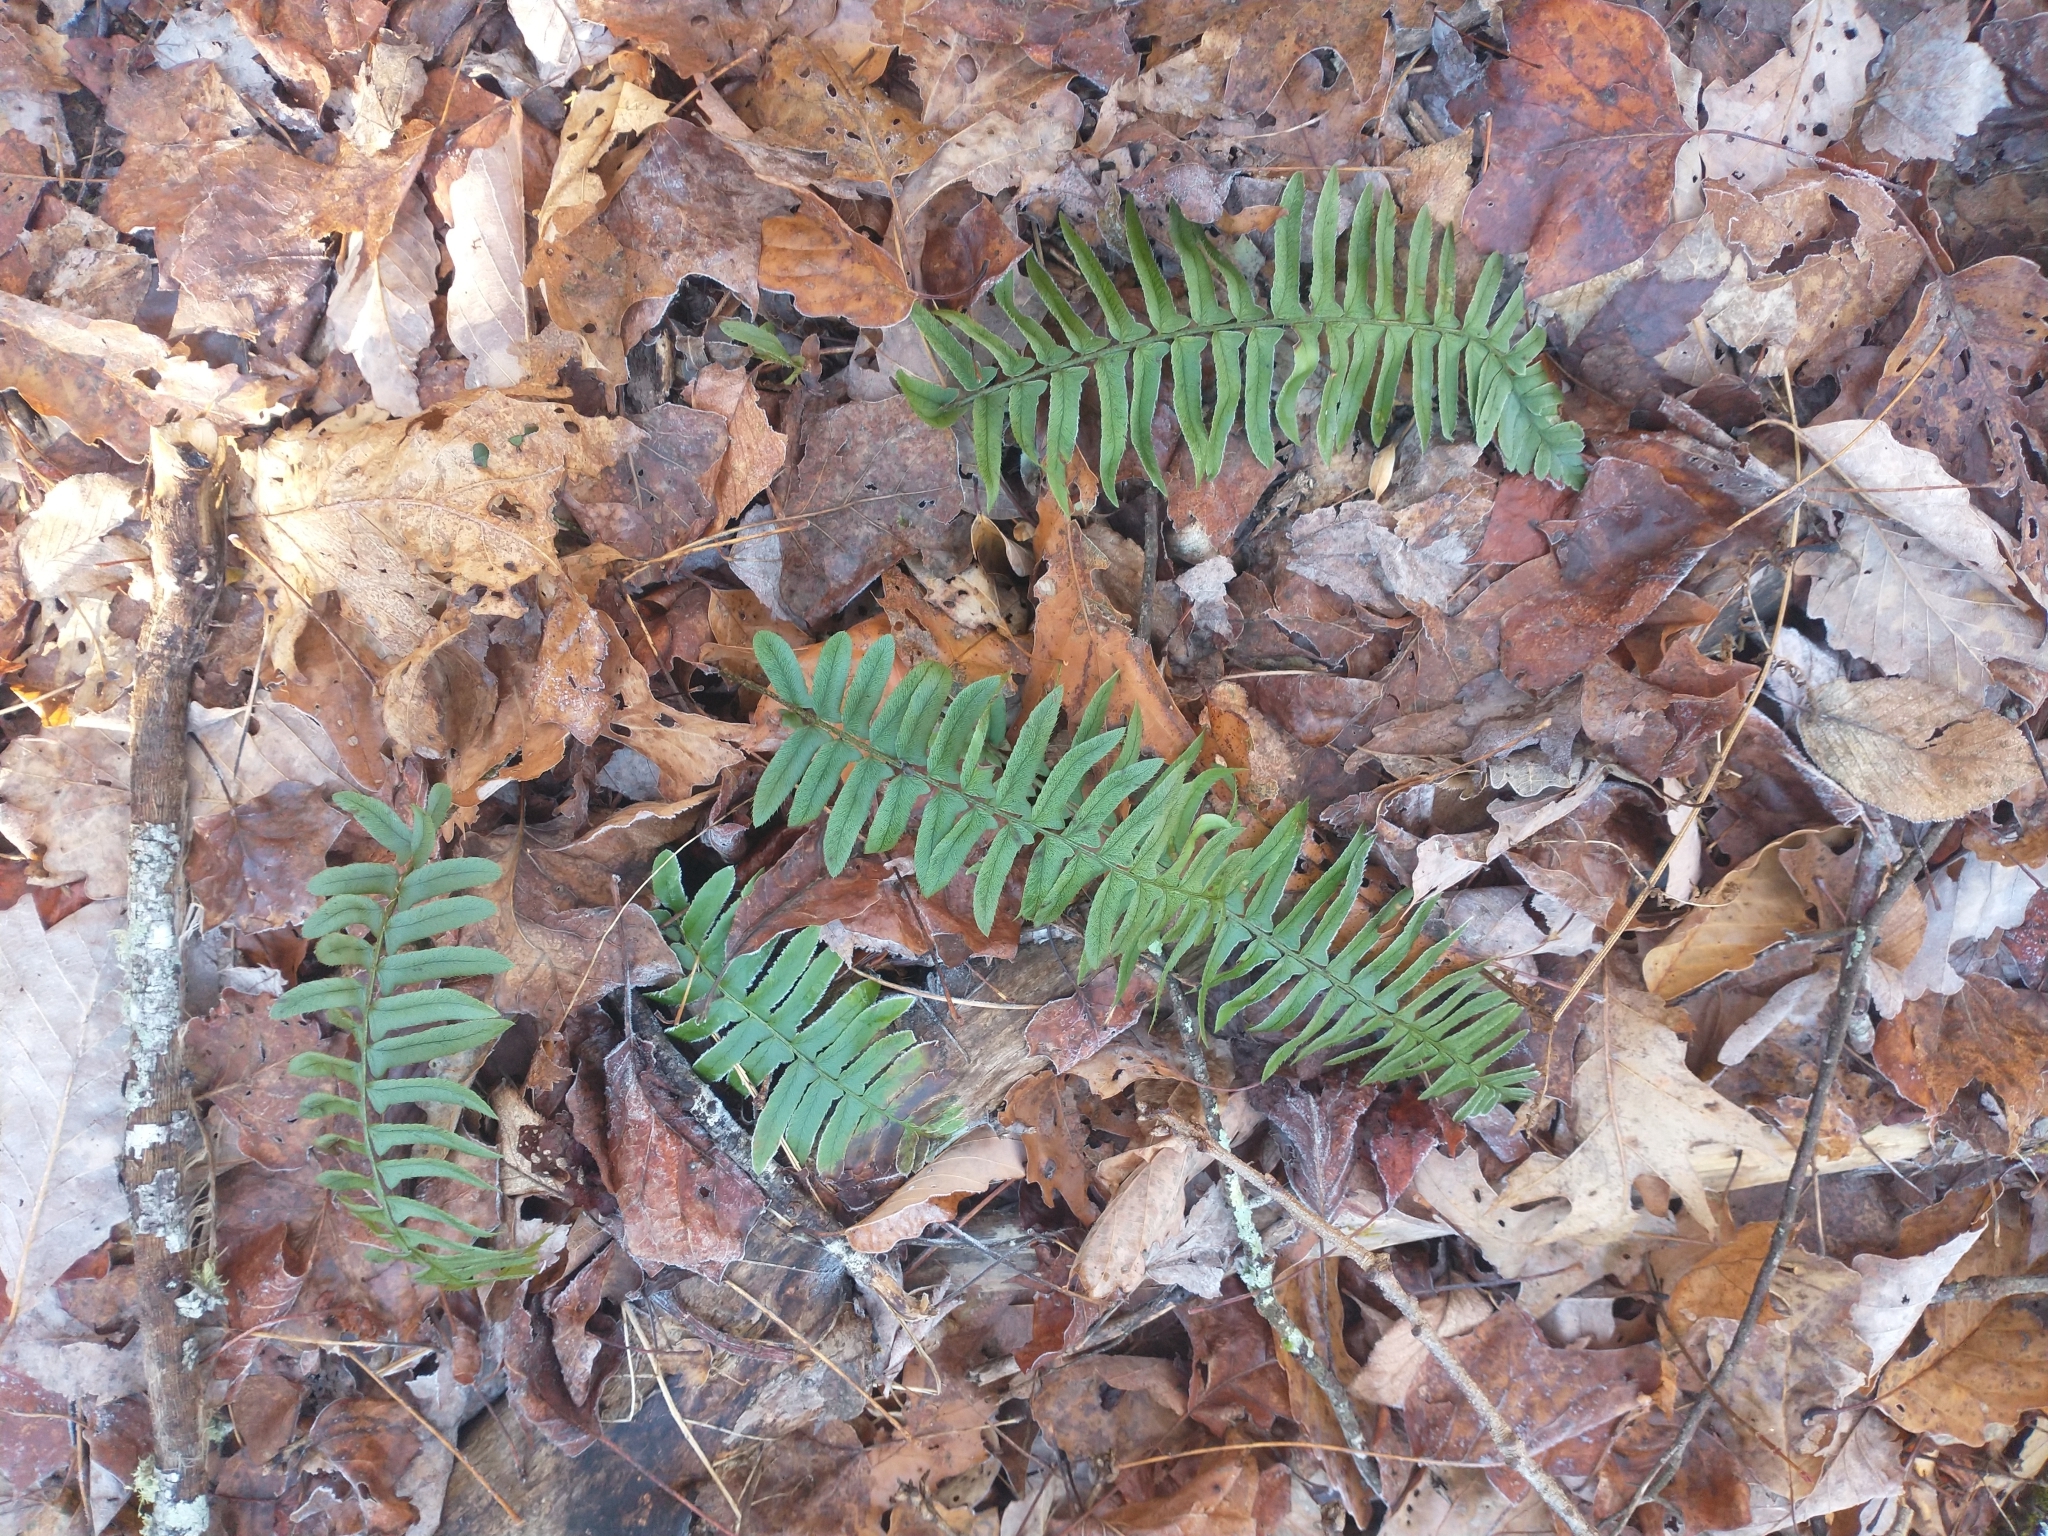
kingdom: Plantae
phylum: Tracheophyta
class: Polypodiopsida
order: Polypodiales
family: Dryopteridaceae
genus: Polystichum
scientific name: Polystichum acrostichoides
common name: Christmas fern
